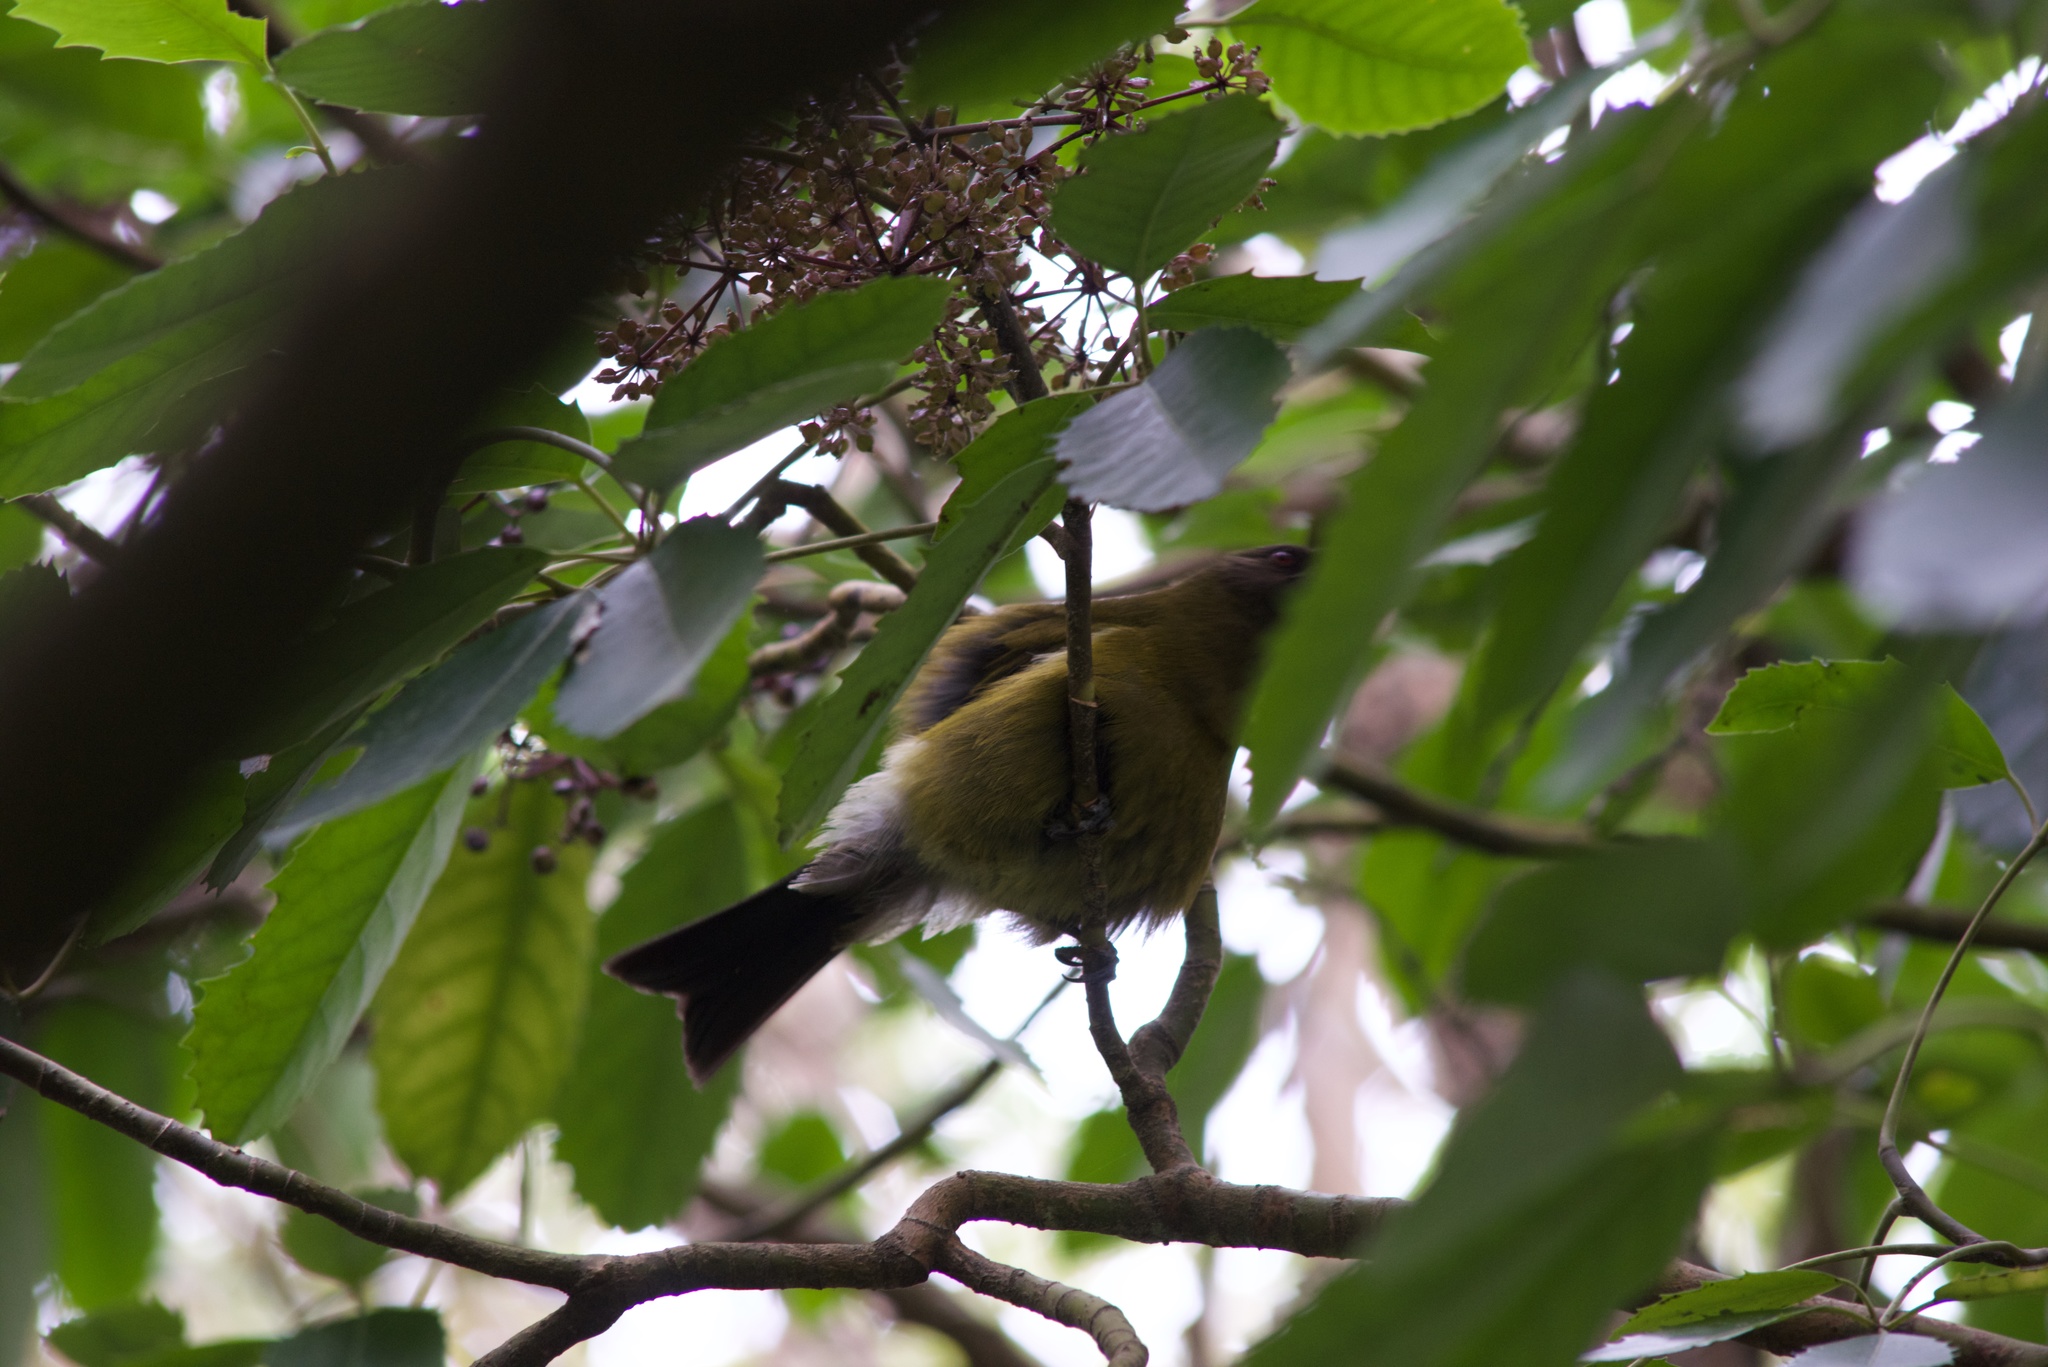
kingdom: Animalia
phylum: Chordata
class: Aves
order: Passeriformes
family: Meliphagidae
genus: Anthornis
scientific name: Anthornis melanura
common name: New zealand bellbird
